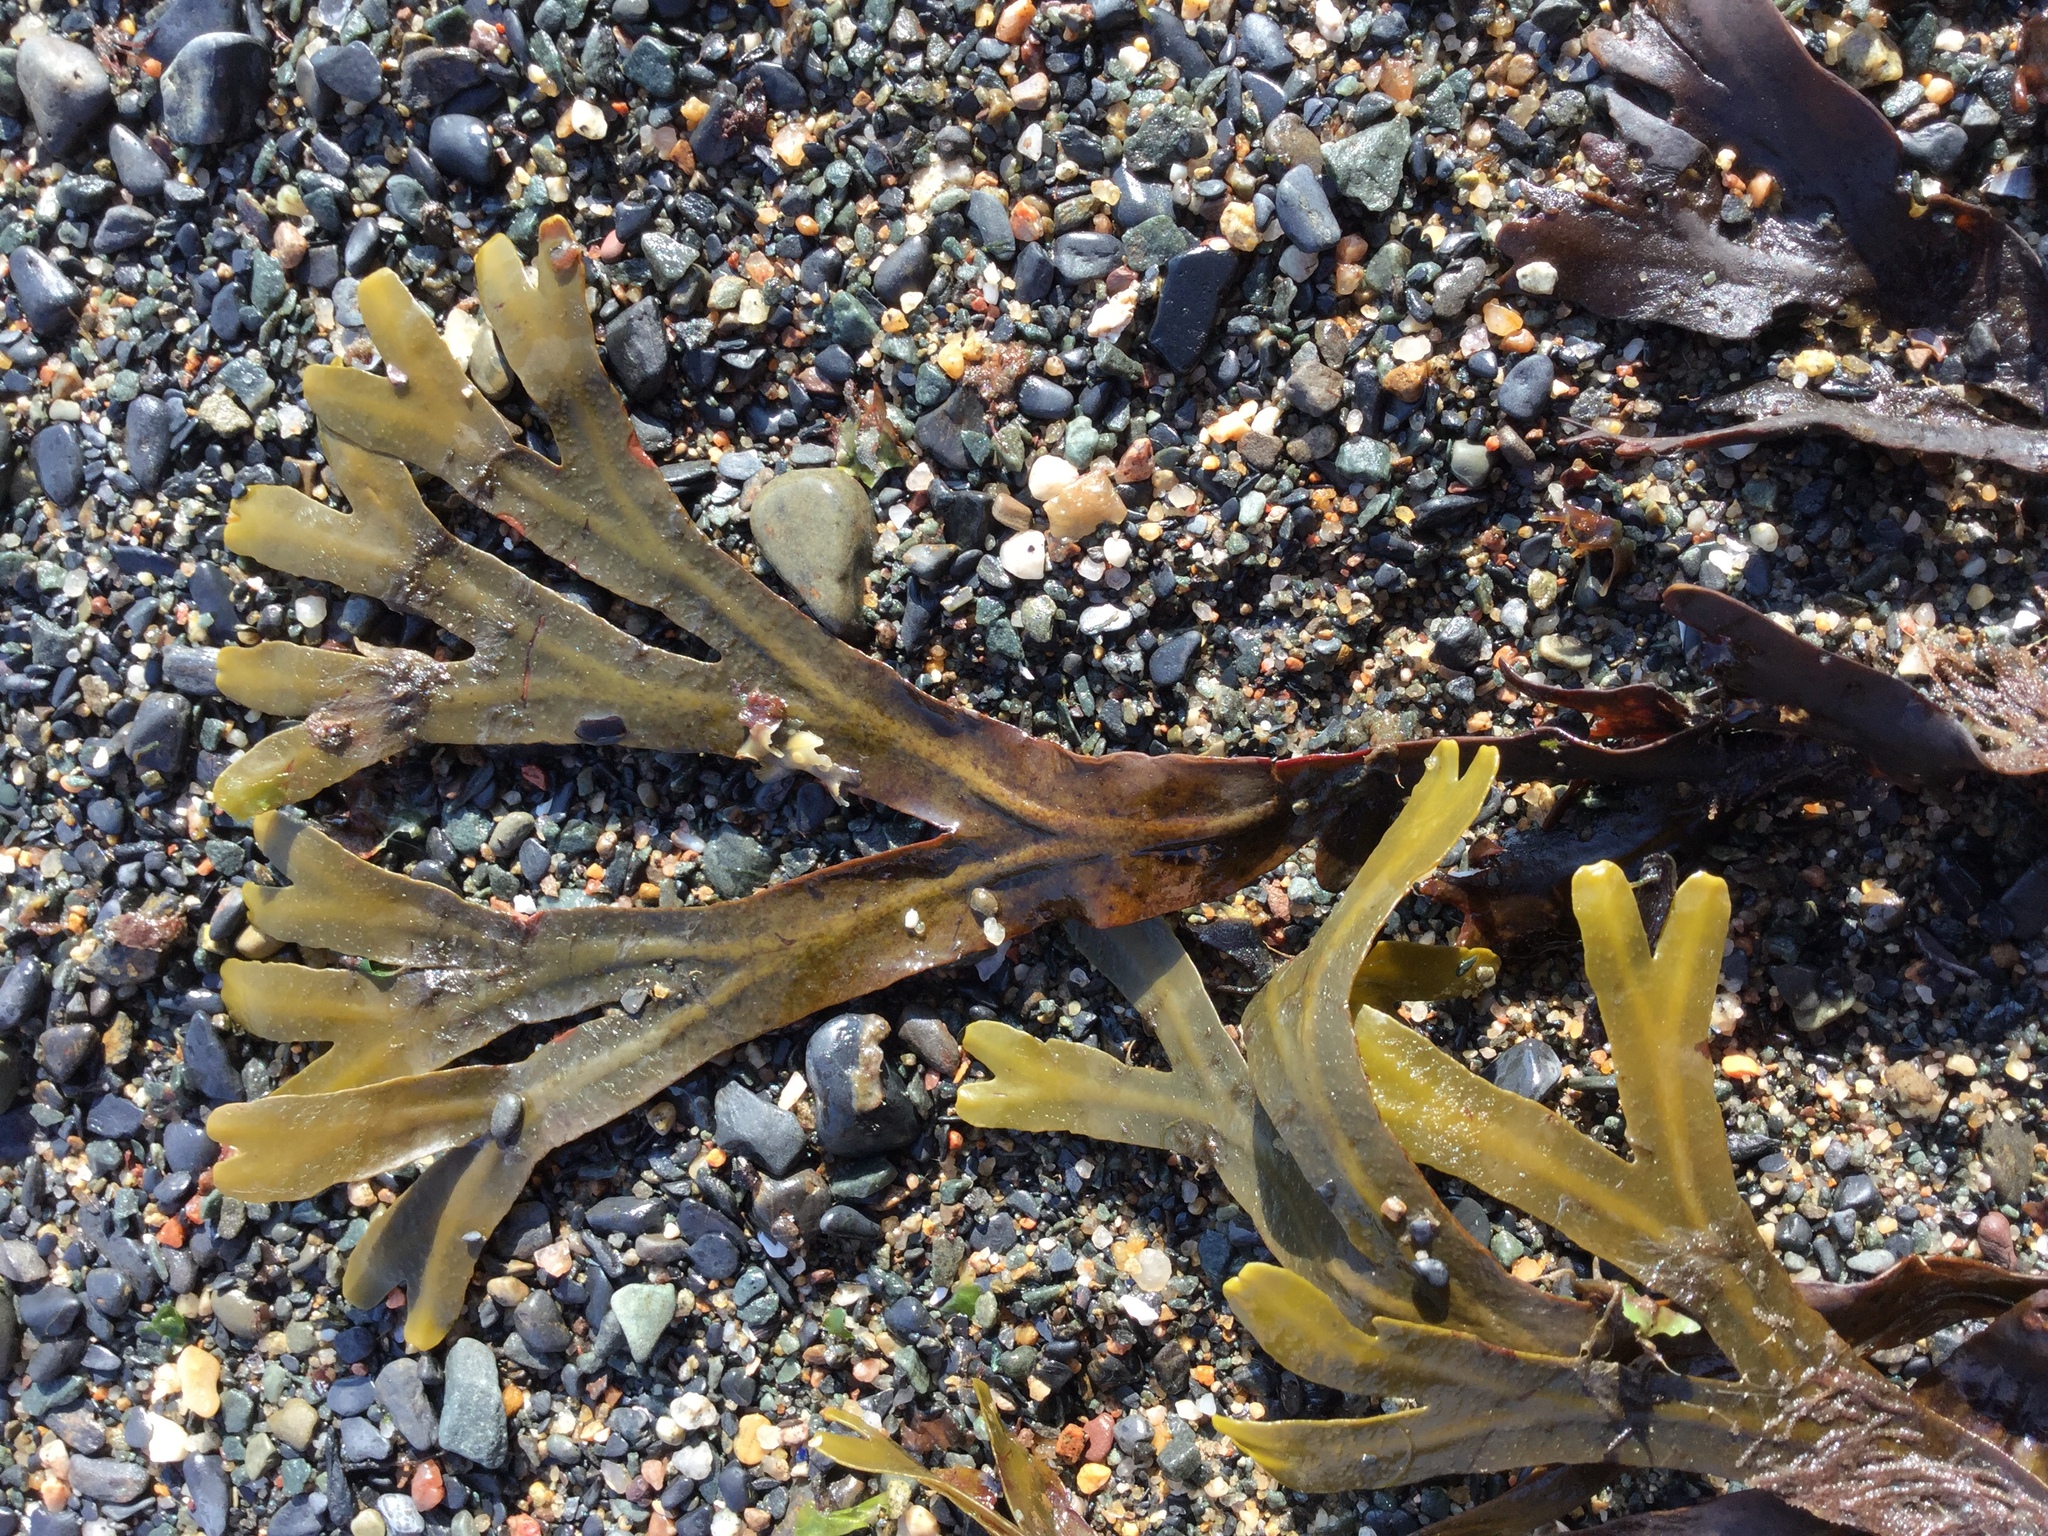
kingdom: Chromista
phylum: Ochrophyta
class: Phaeophyceae
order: Fucales
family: Fucaceae
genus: Fucus
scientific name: Fucus distichus
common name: Rockweed
